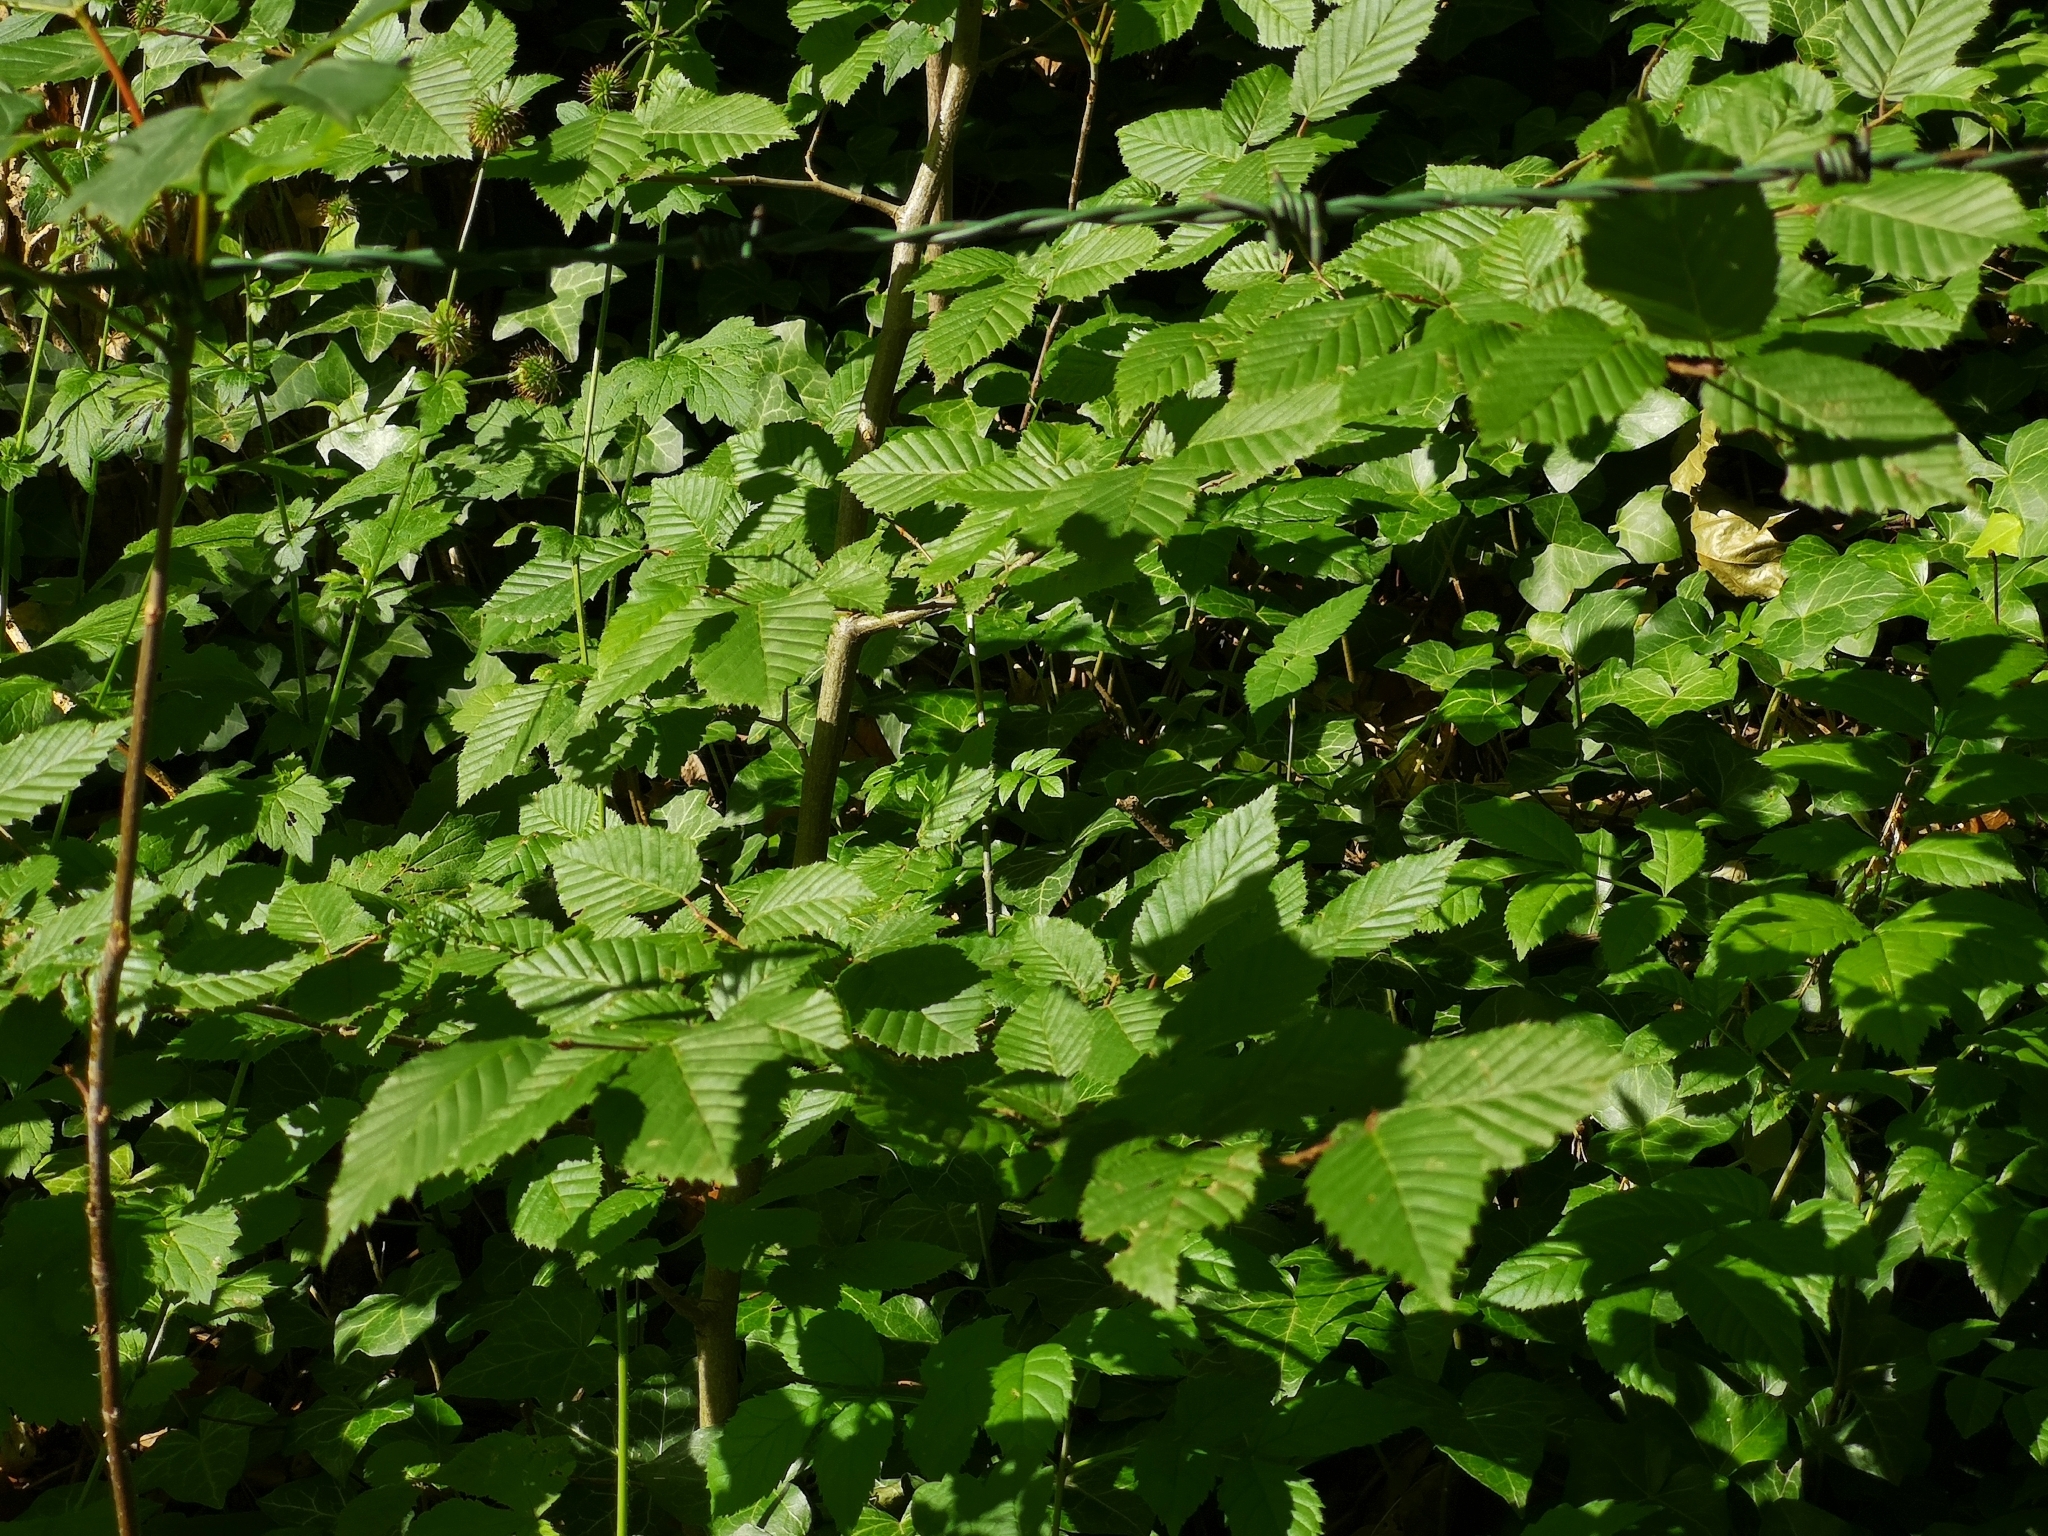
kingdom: Plantae
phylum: Tracheophyta
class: Magnoliopsida
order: Fagales
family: Betulaceae
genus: Carpinus
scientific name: Carpinus betulus
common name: Hornbeam
